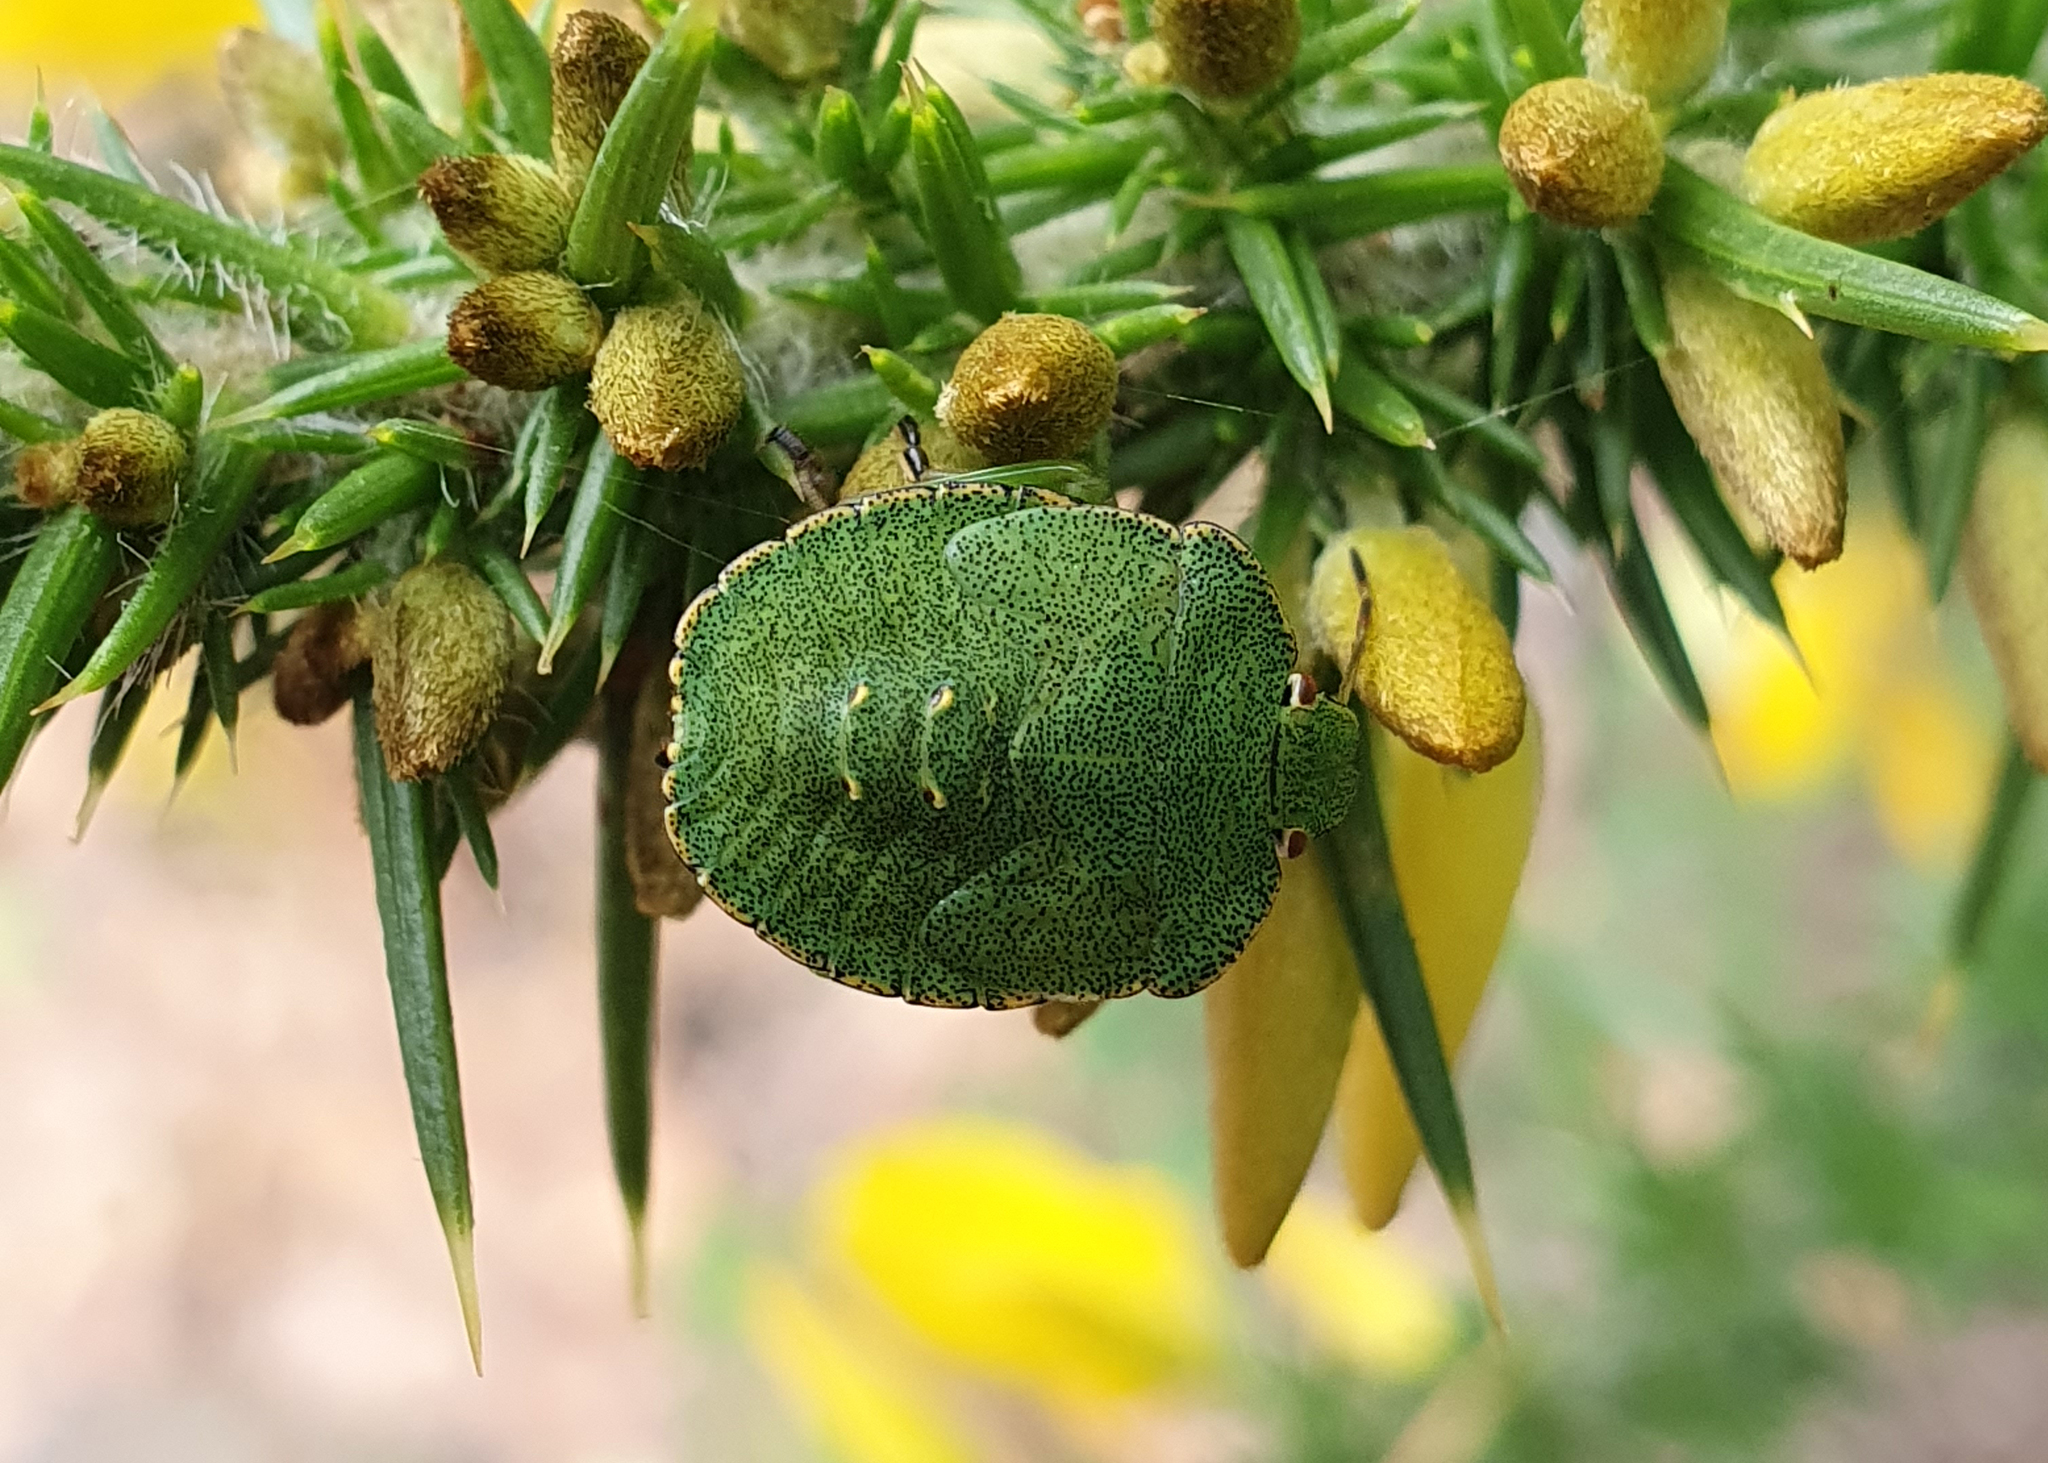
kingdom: Animalia
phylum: Arthropoda
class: Insecta
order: Hemiptera
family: Pentatomidae
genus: Palomena
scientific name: Palomena prasina
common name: Green shieldbug
